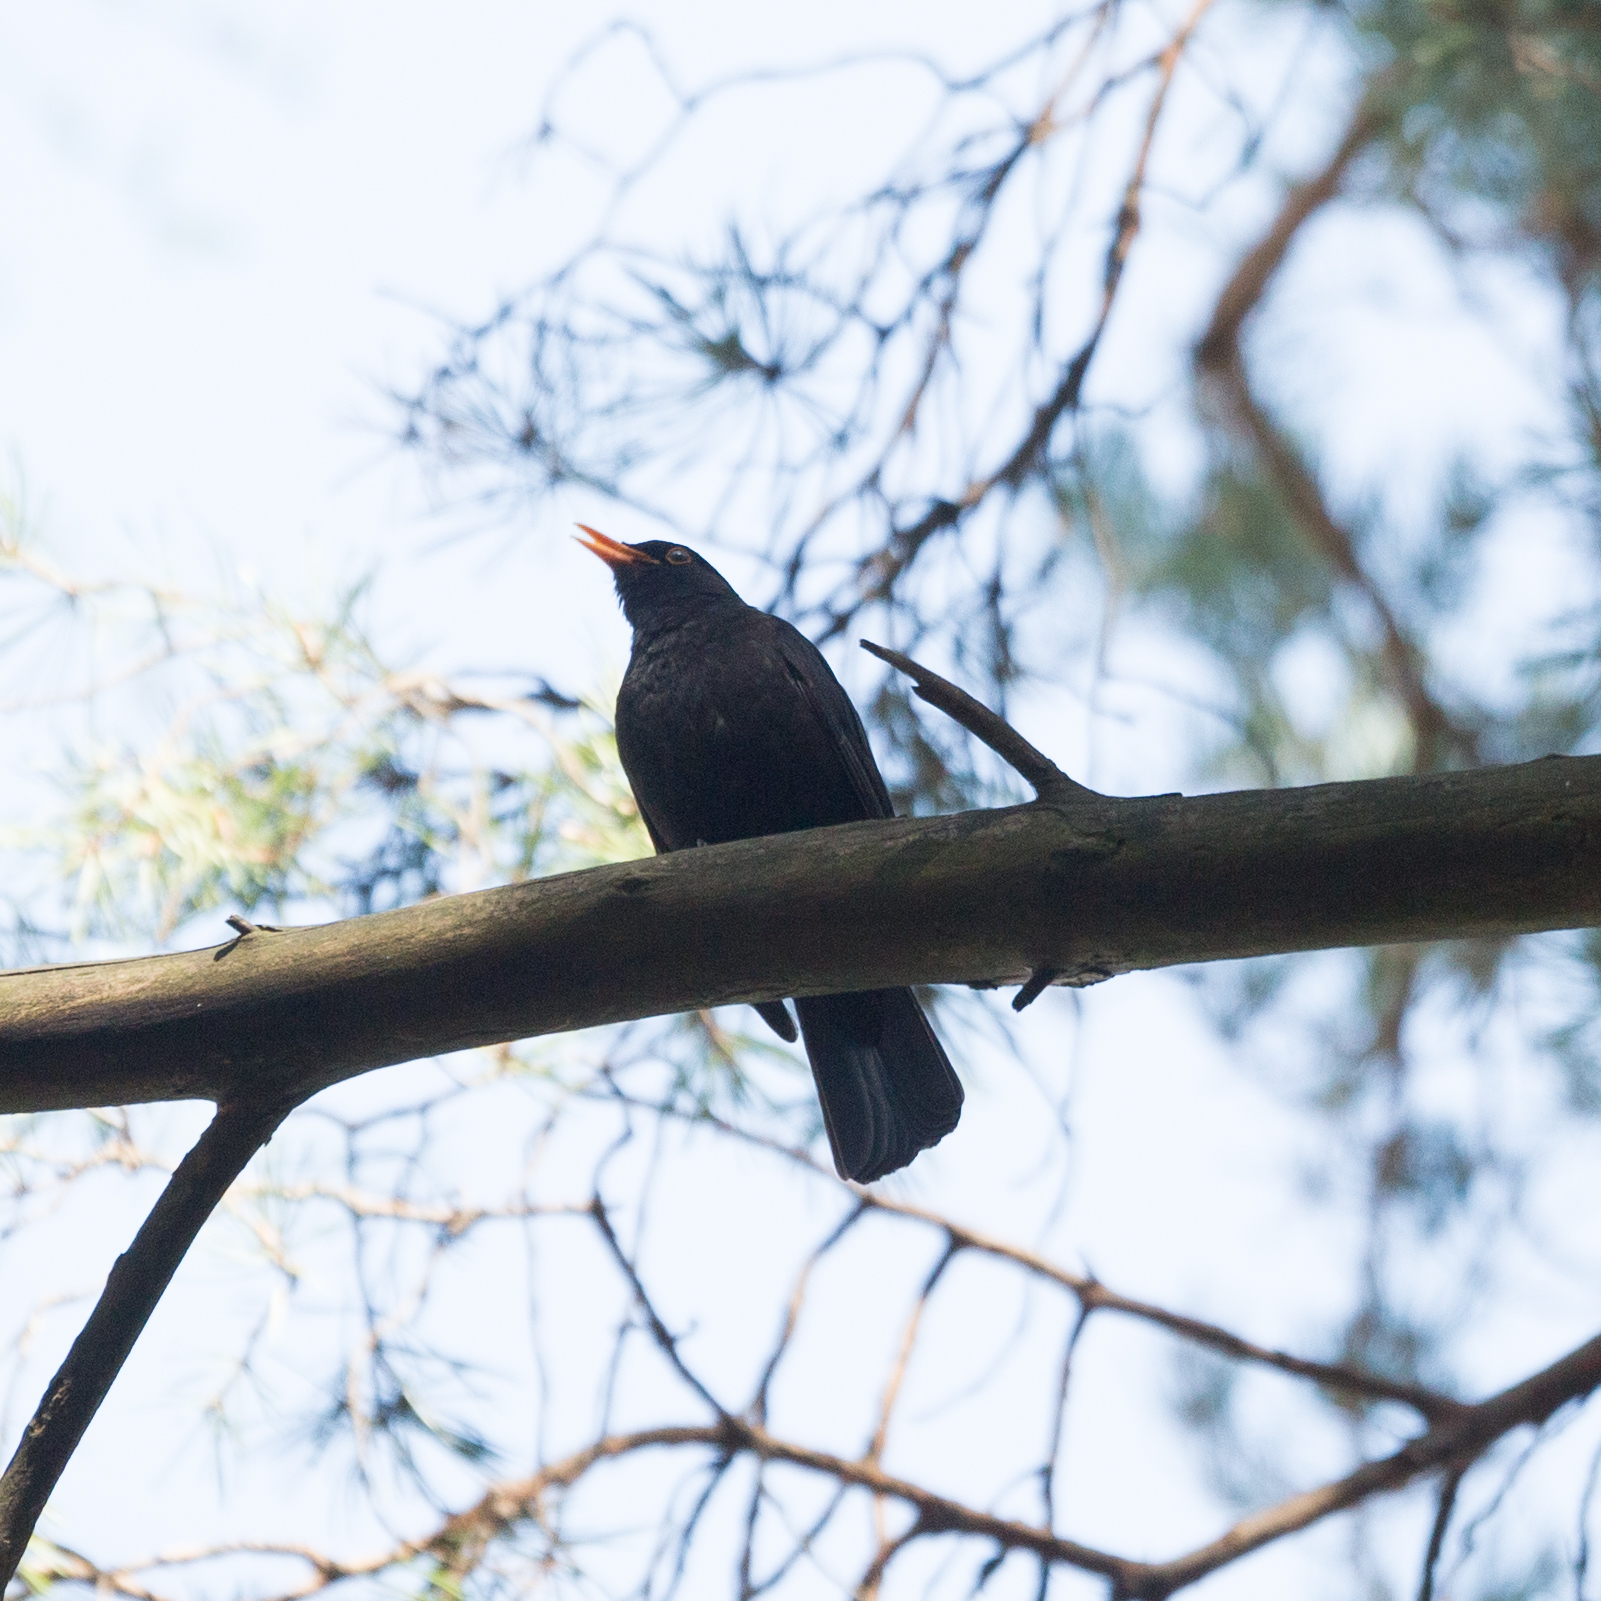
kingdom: Animalia
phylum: Chordata
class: Aves
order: Passeriformes
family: Turdidae
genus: Turdus
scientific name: Turdus merula
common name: Common blackbird
